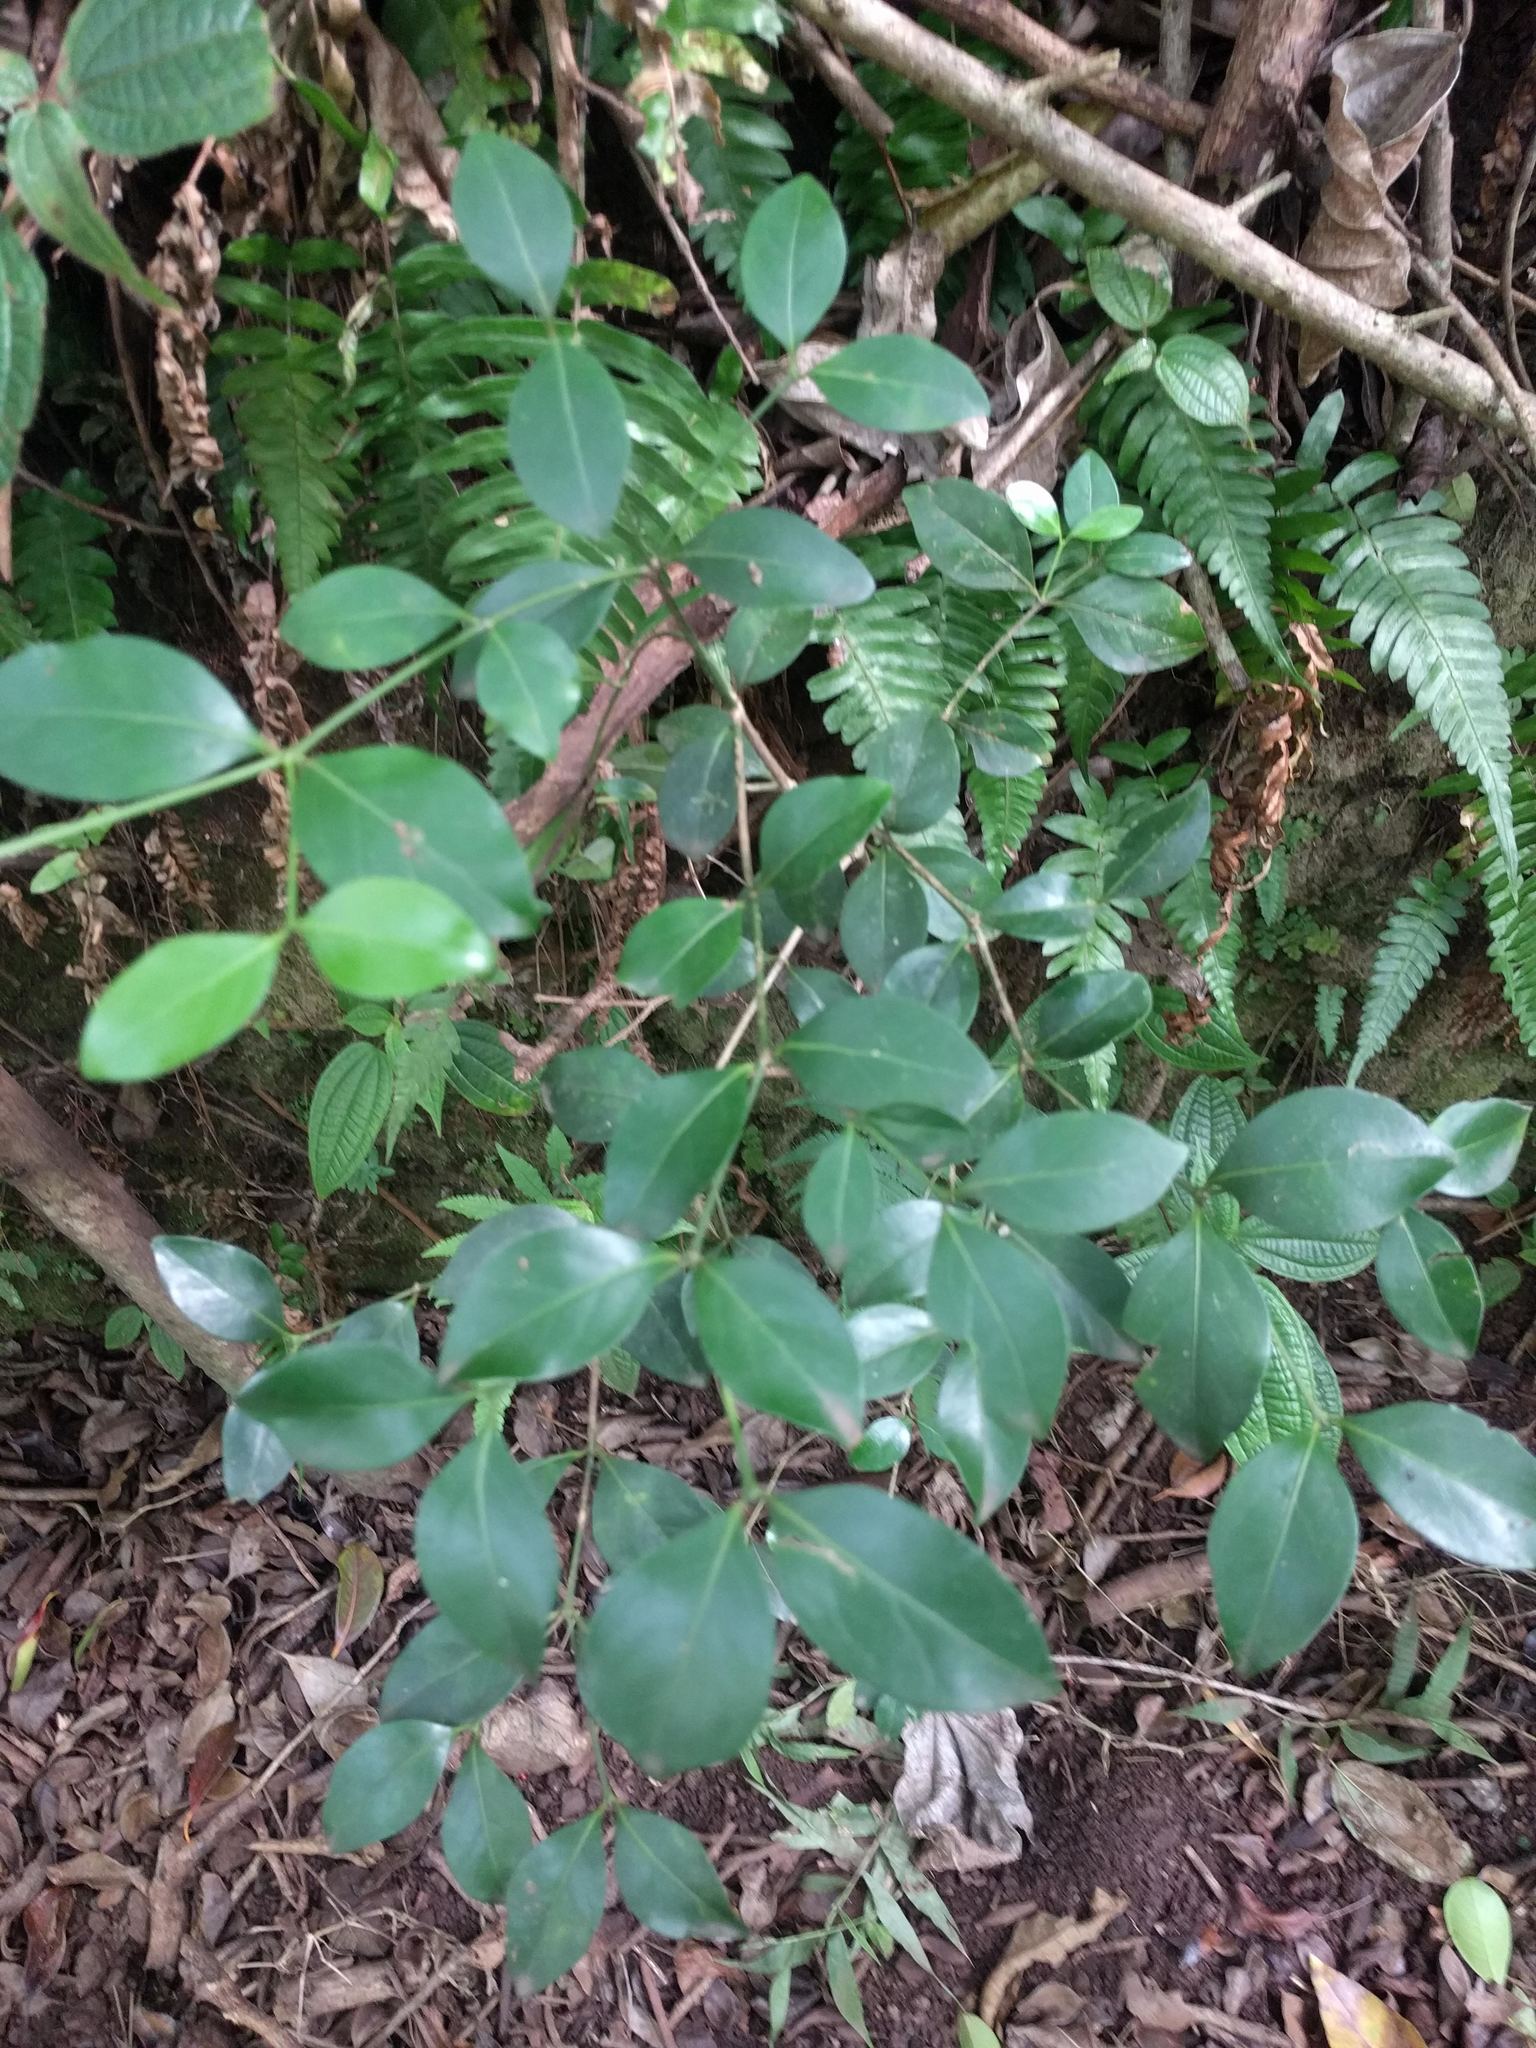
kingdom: Plantae
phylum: Tracheophyta
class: Magnoliopsida
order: Gentianales
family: Rubiaceae
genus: Psydrax
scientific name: Psydrax odoratus
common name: Alahe'e
